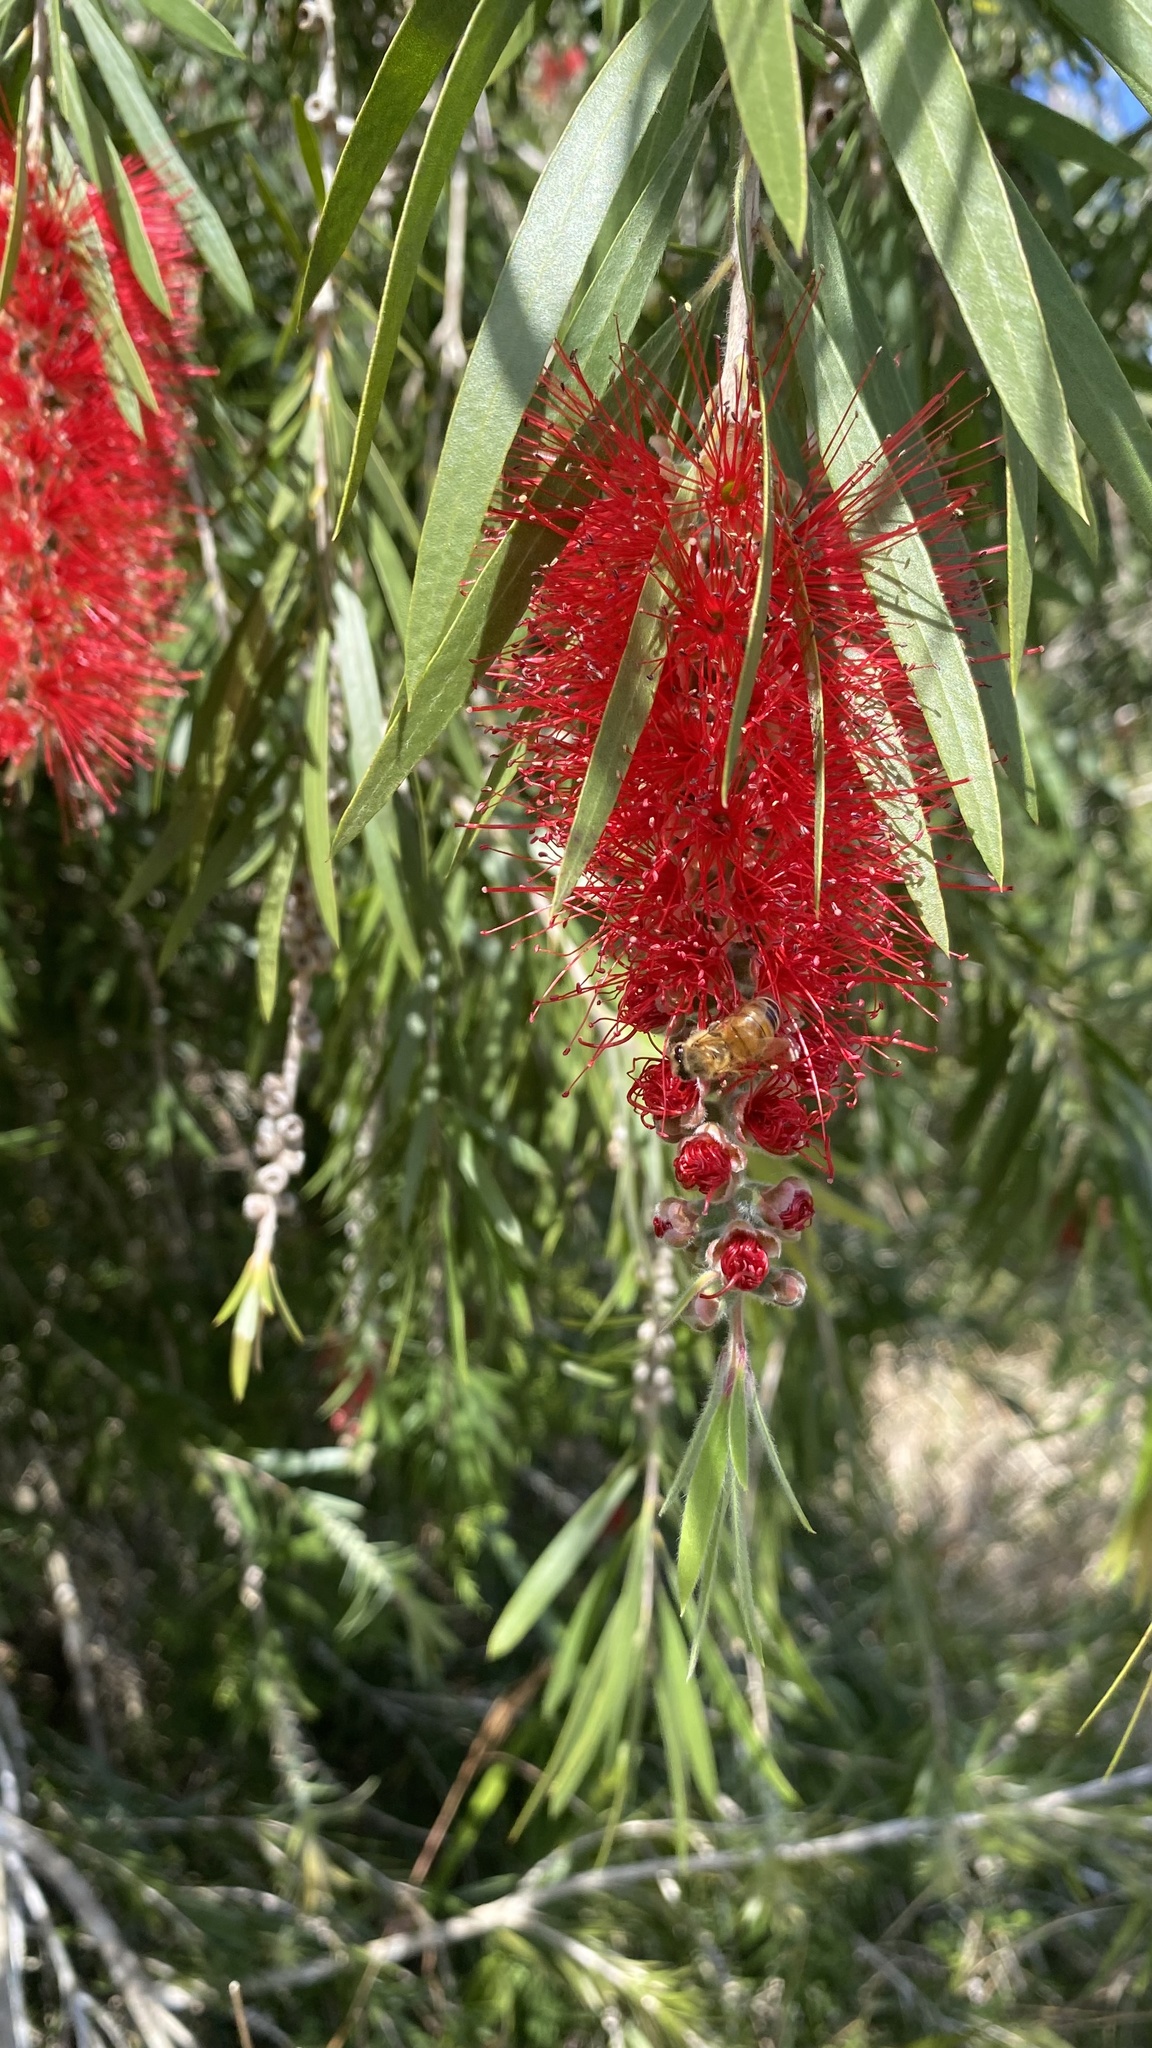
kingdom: Plantae
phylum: Tracheophyta
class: Magnoliopsida
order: Myrtales
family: Myrtaceae
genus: Callistemon
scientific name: Callistemon viminalis
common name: Drooping bottlebrush
